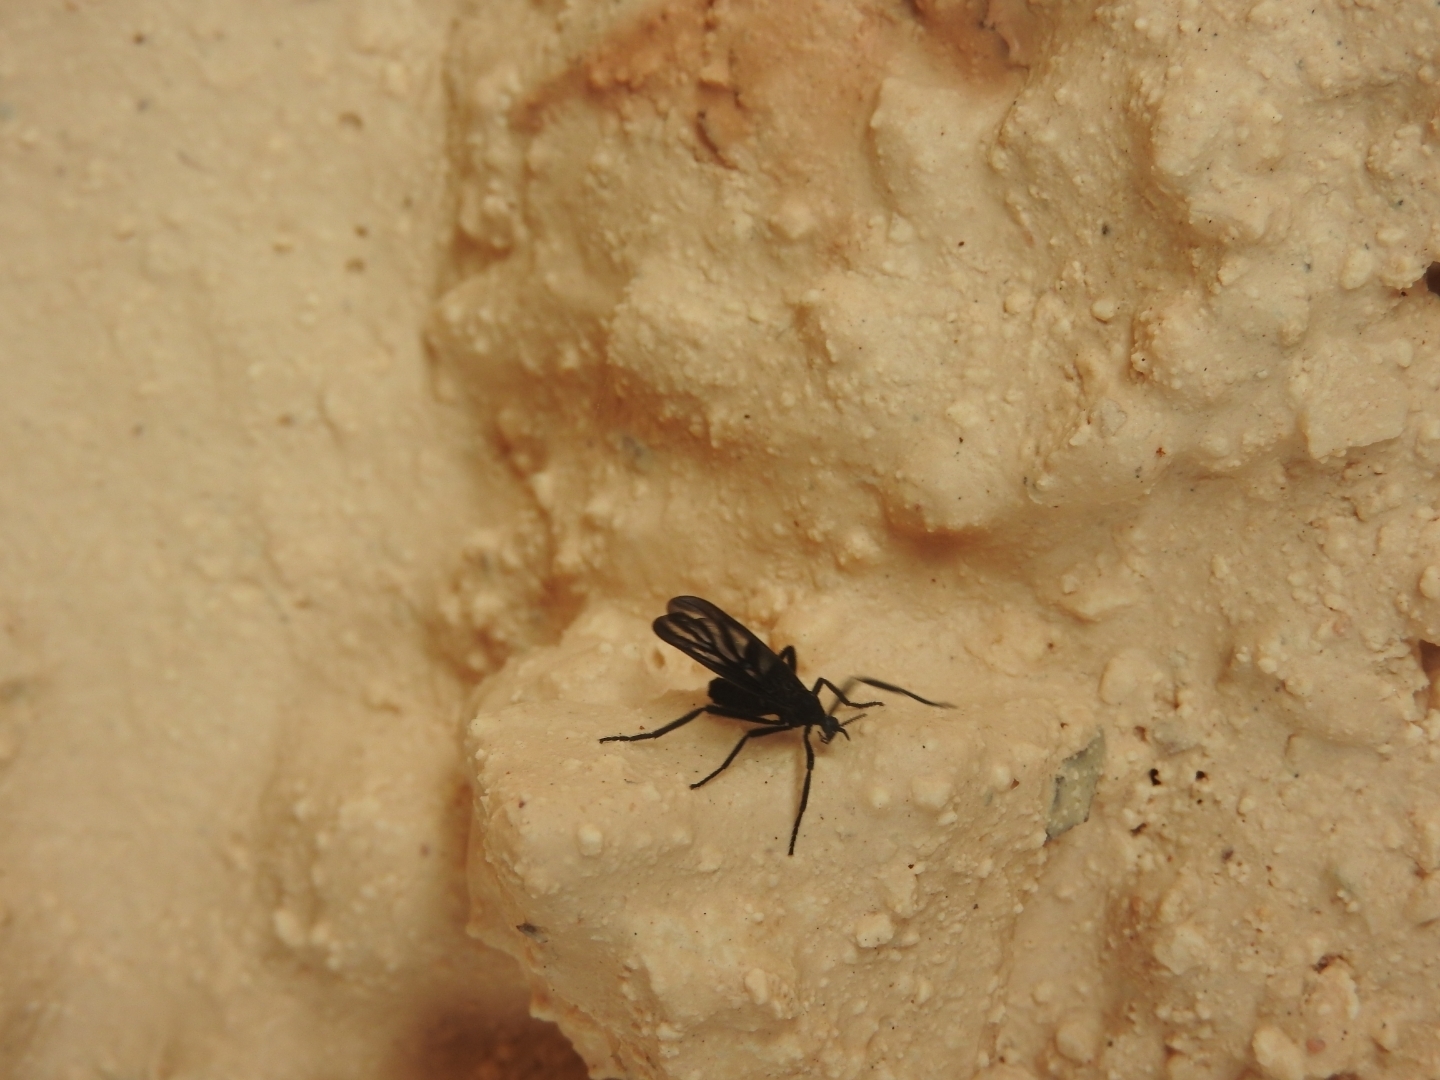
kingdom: Animalia
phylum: Arthropoda
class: Insecta
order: Diptera
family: Bibionidae
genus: Plecia
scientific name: Plecia plagiata
